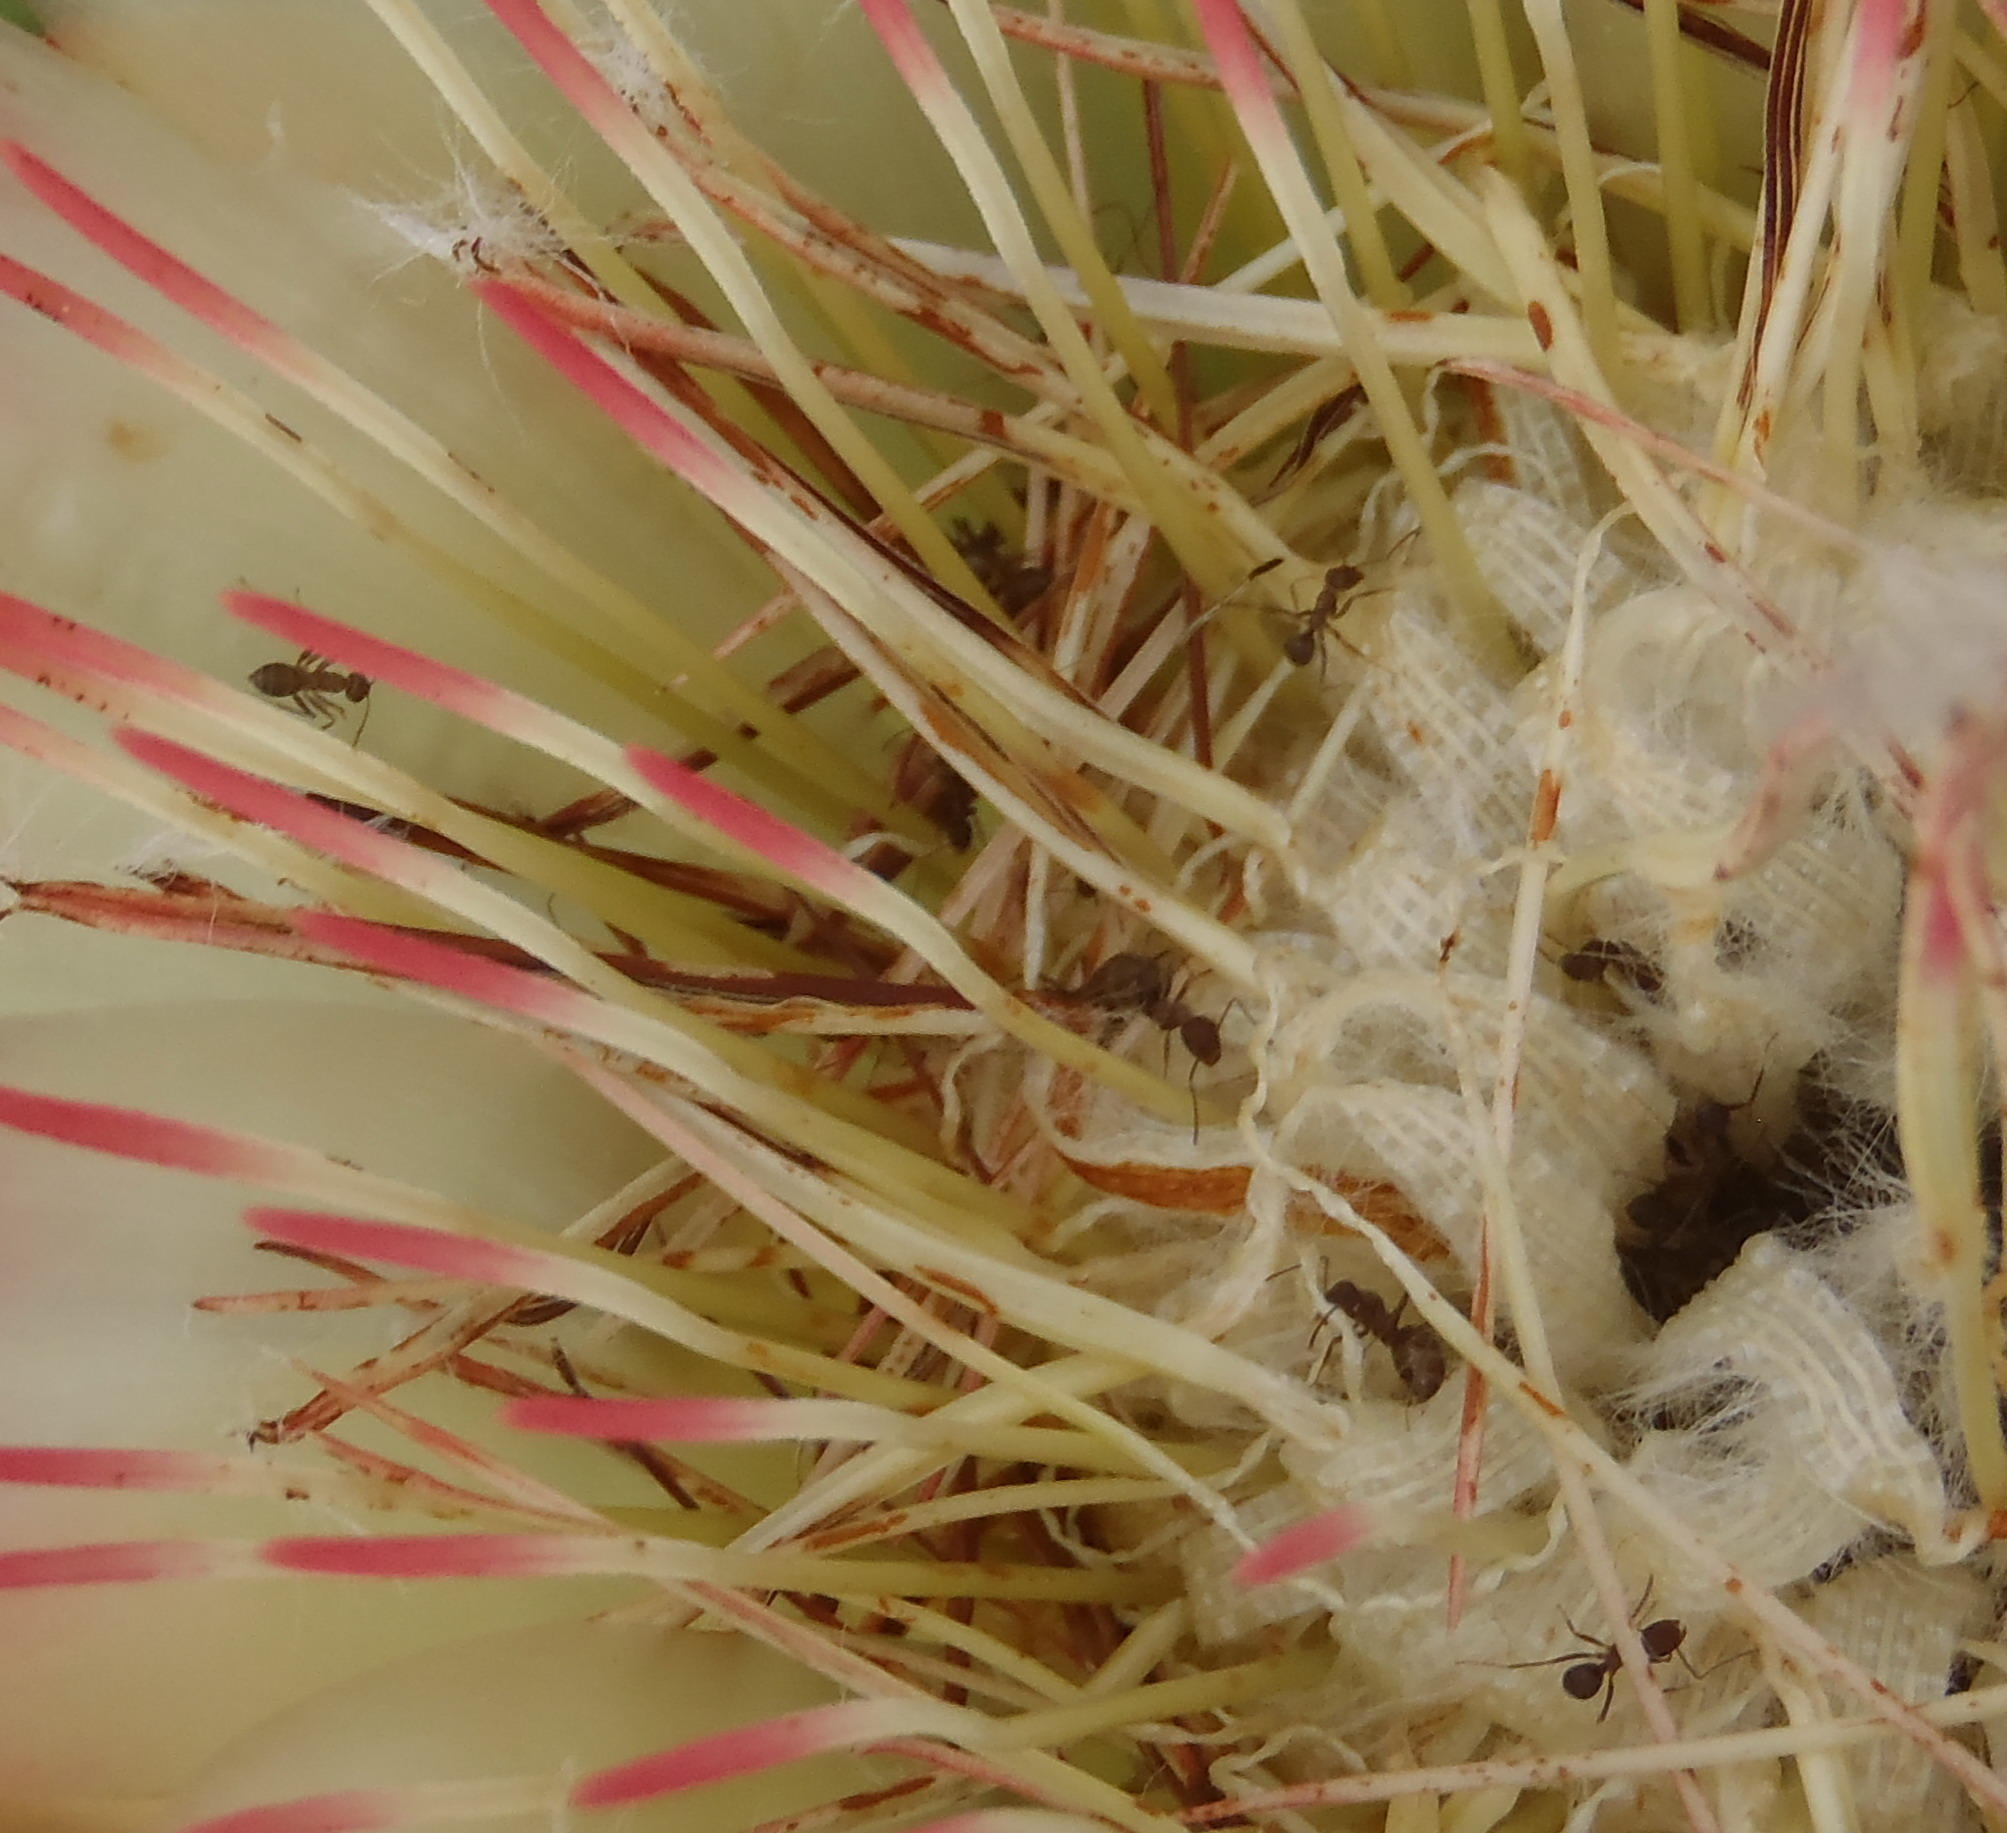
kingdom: Animalia
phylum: Arthropoda
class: Insecta
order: Hymenoptera
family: Formicidae
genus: Anoplolepis
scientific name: Anoplolepis steingroeveri
